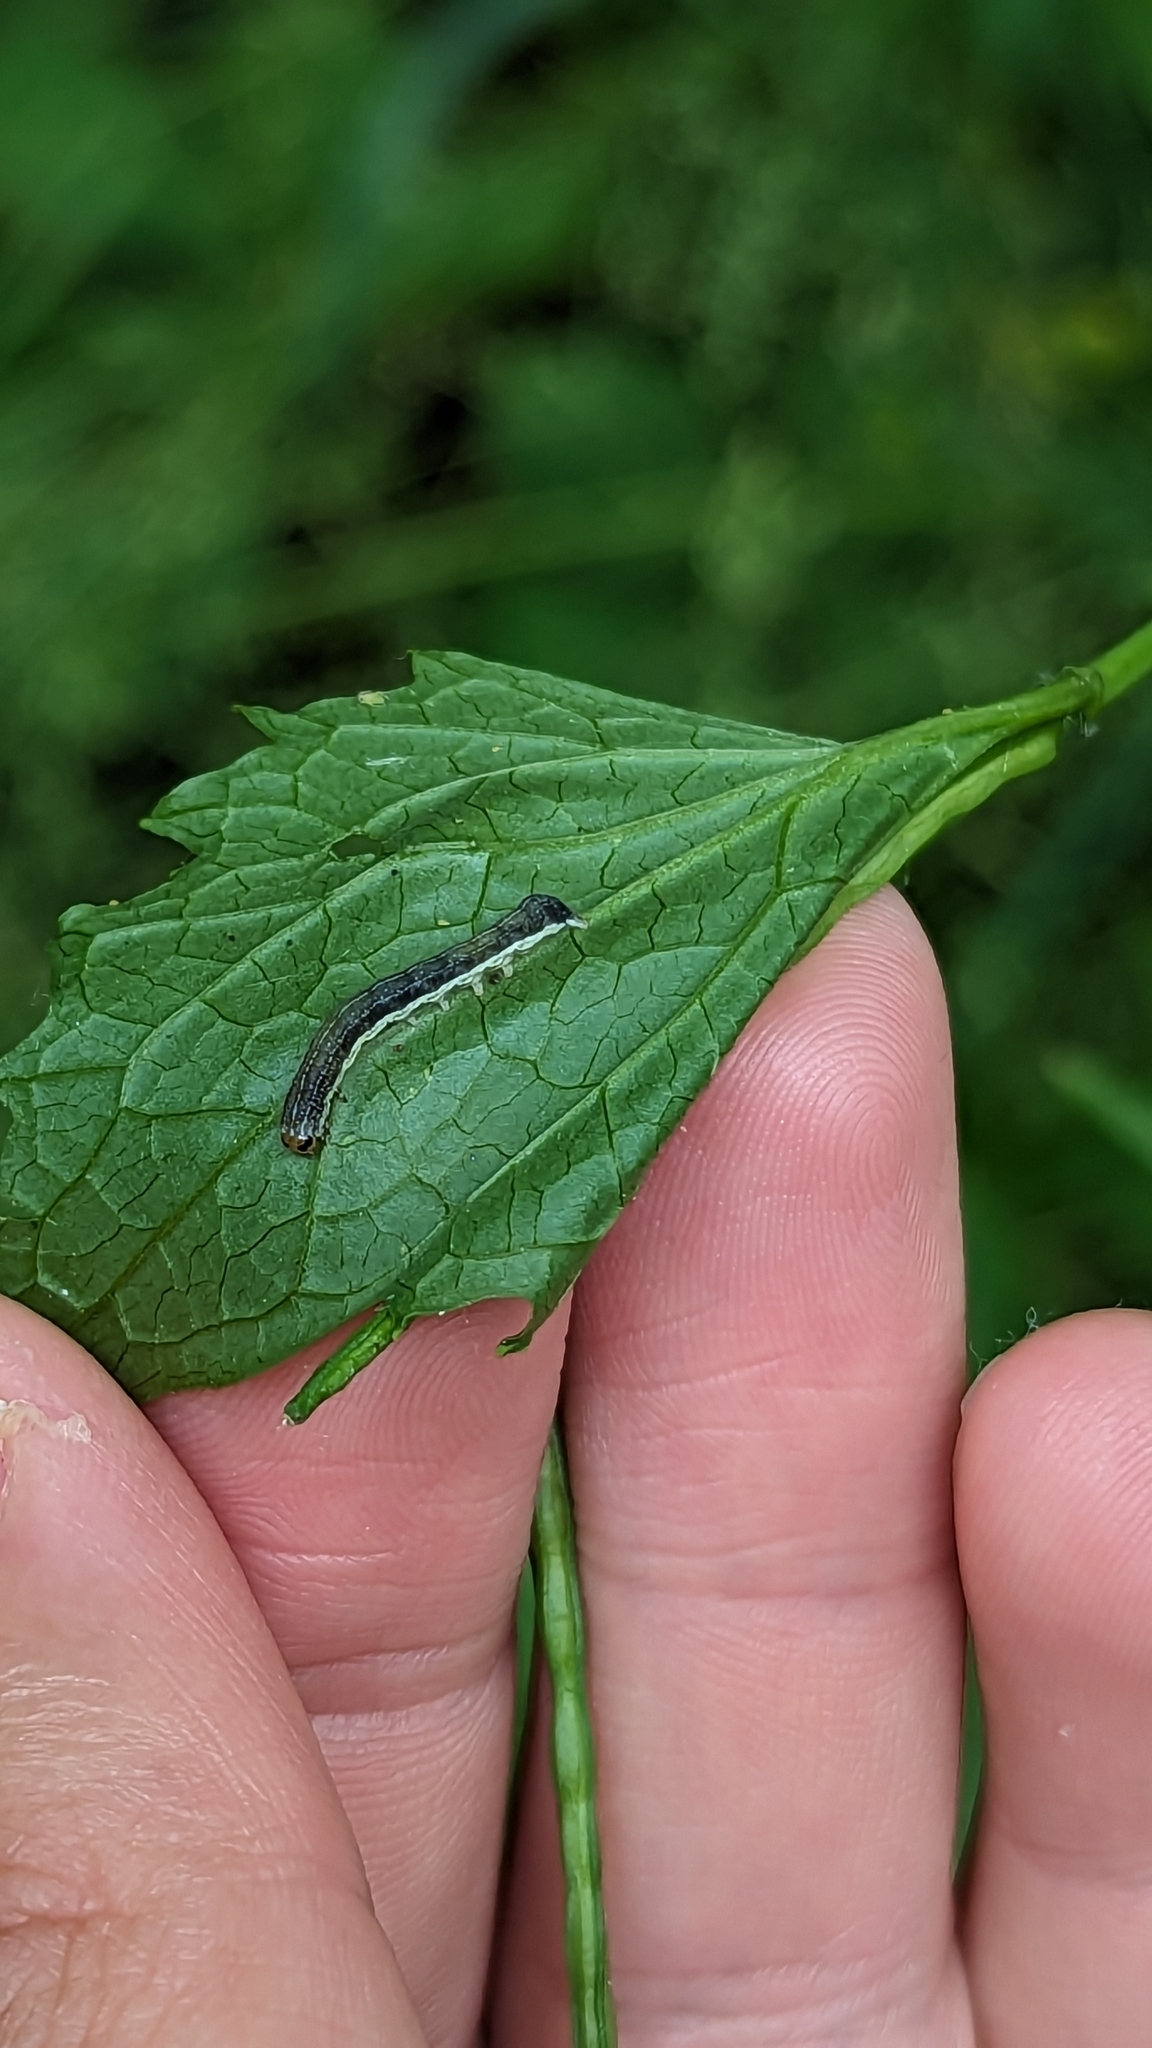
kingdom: Animalia
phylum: Arthropoda
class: Insecta
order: Lepidoptera
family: Noctuidae
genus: Crocigrapha
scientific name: Crocigrapha normani
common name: Norman's quaker
